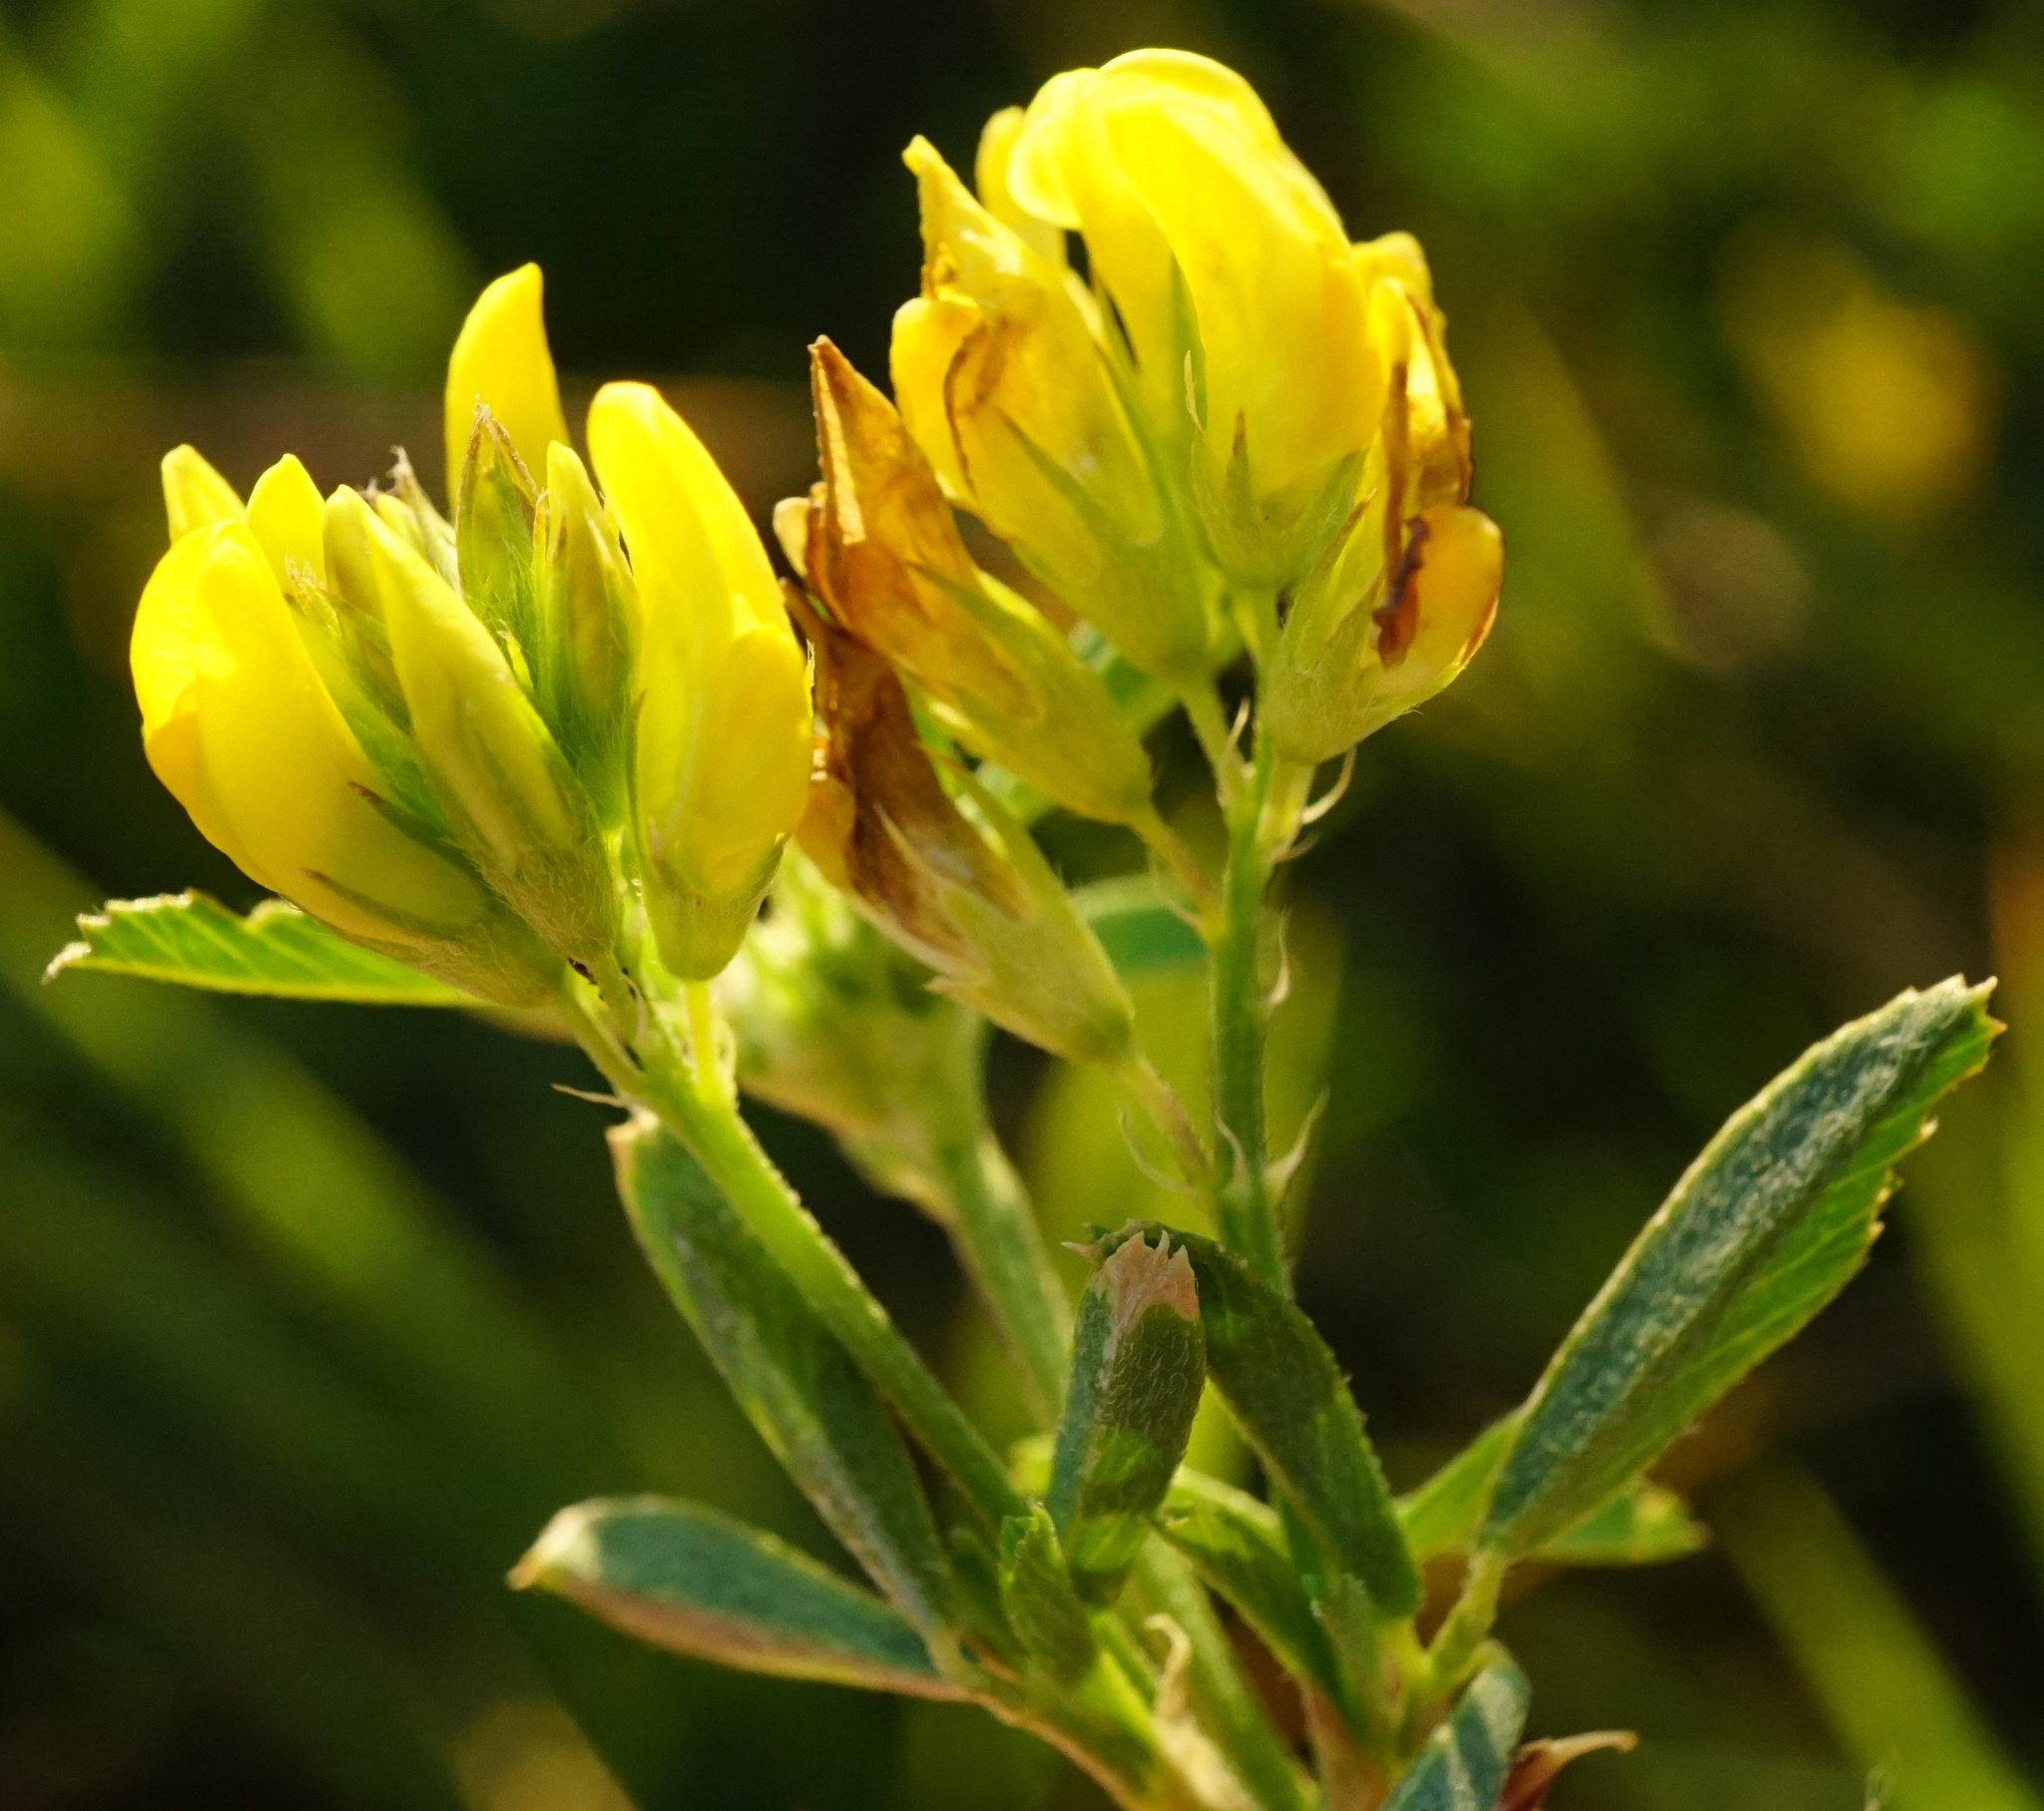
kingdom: Plantae
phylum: Tracheophyta
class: Magnoliopsida
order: Fabales
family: Fabaceae
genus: Medicago
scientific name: Medicago falcata
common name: Sickle medick
